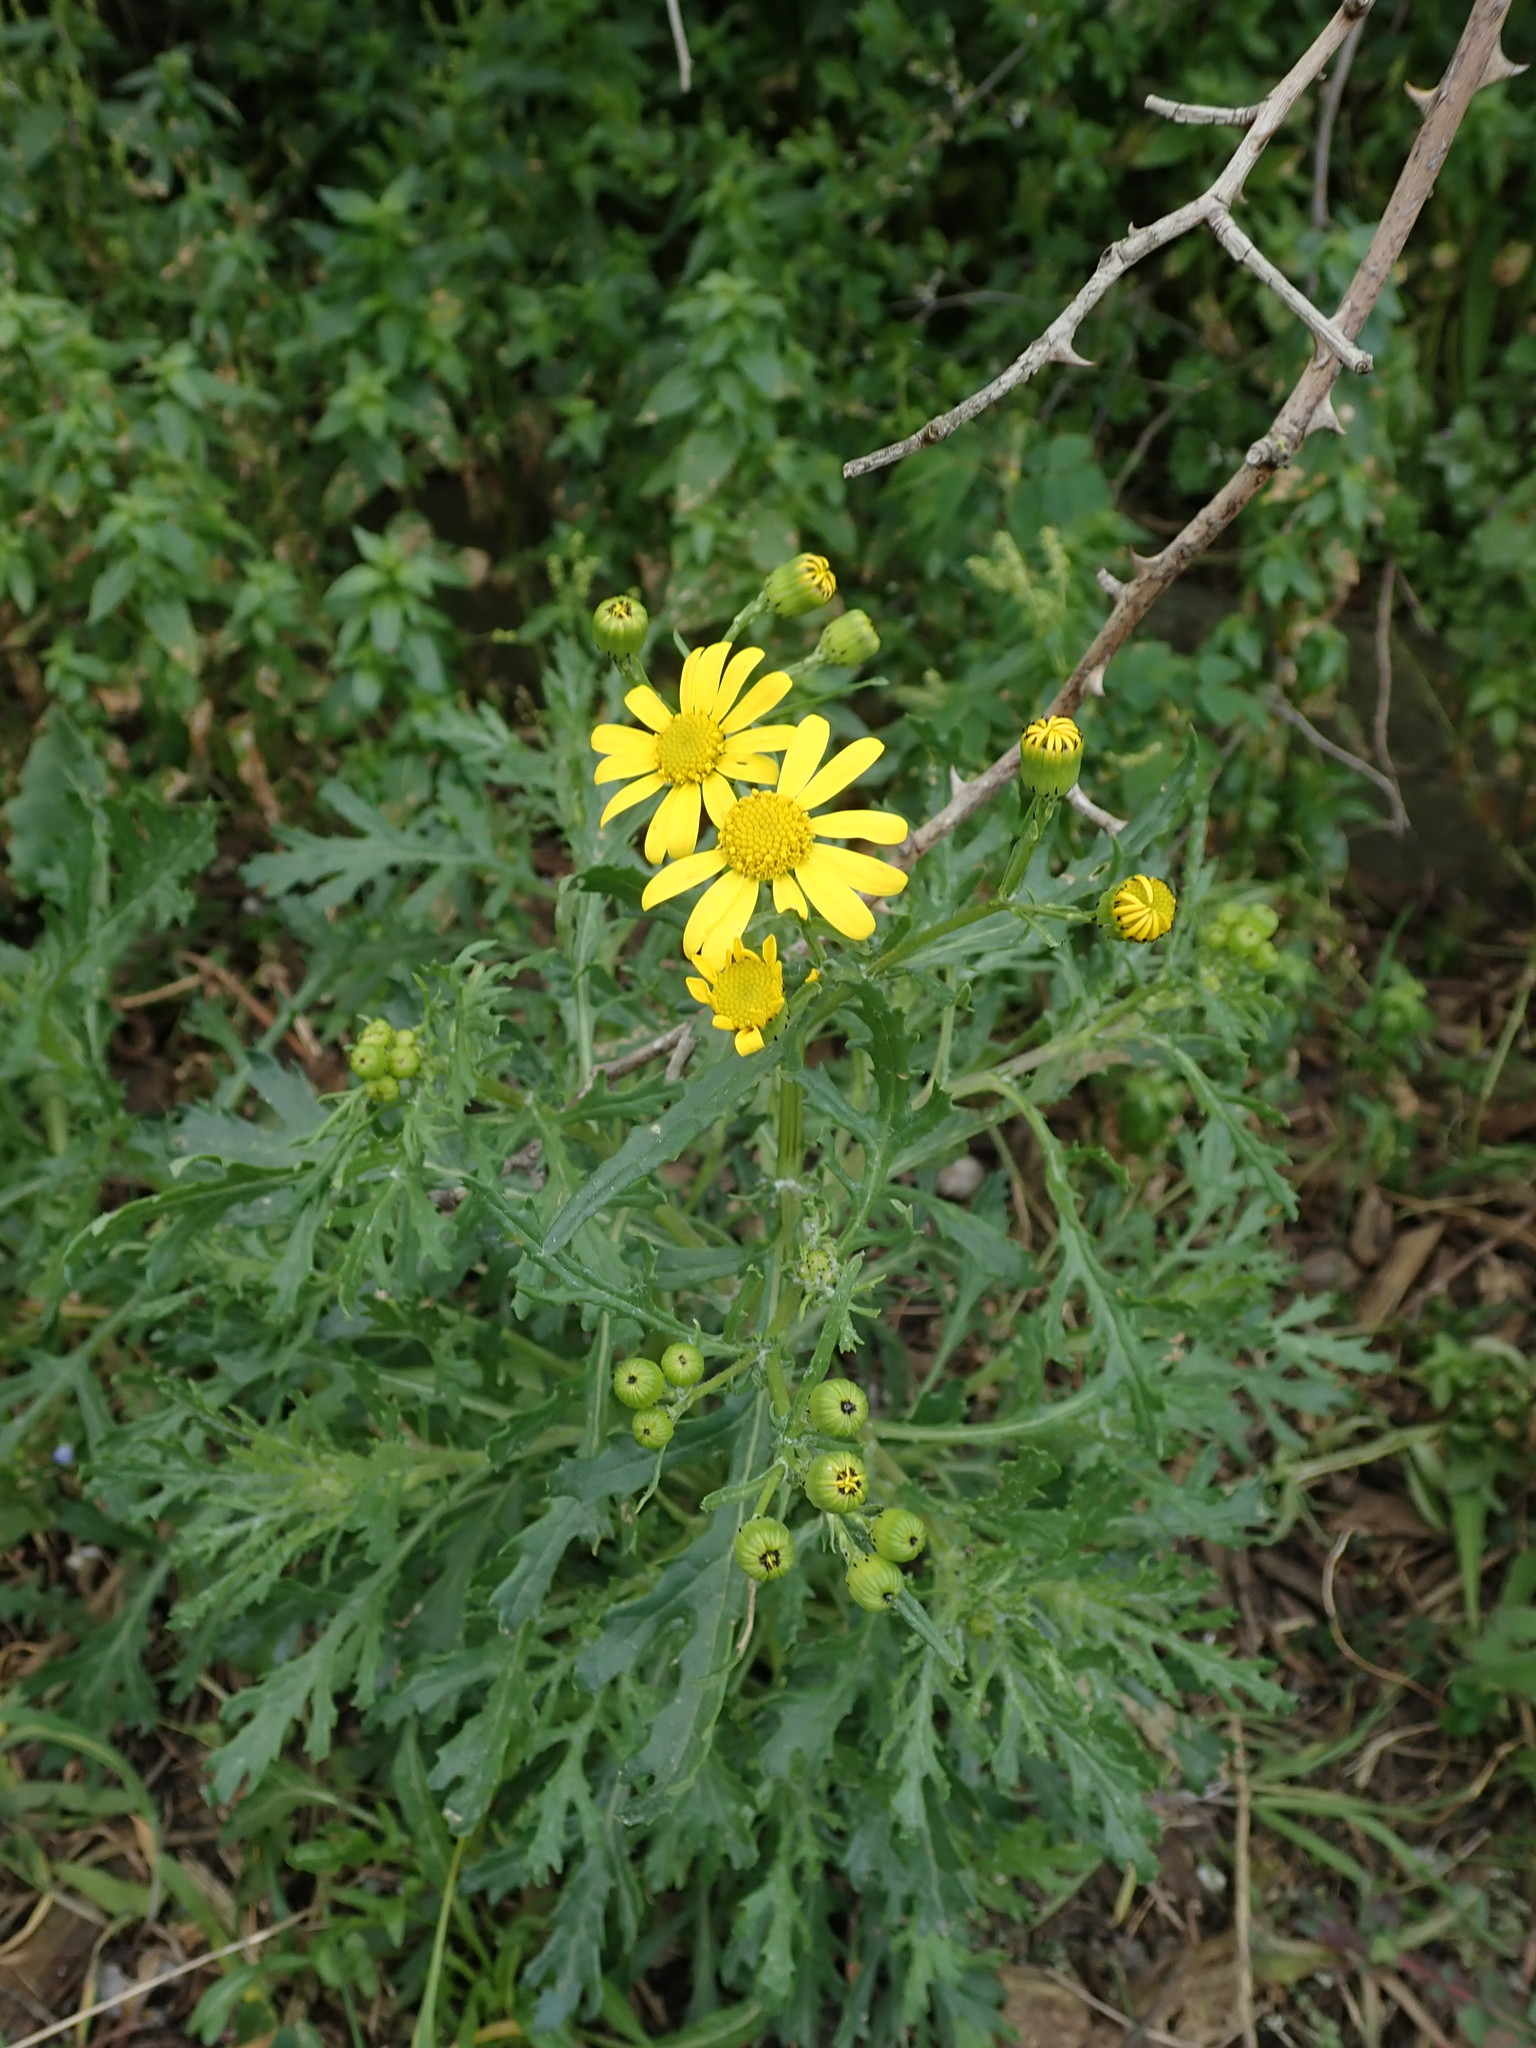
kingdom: Plantae
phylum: Tracheophyta
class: Magnoliopsida
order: Asterales
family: Asteraceae
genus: Senecio
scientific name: Senecio squalidus
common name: Oxford ragwort
